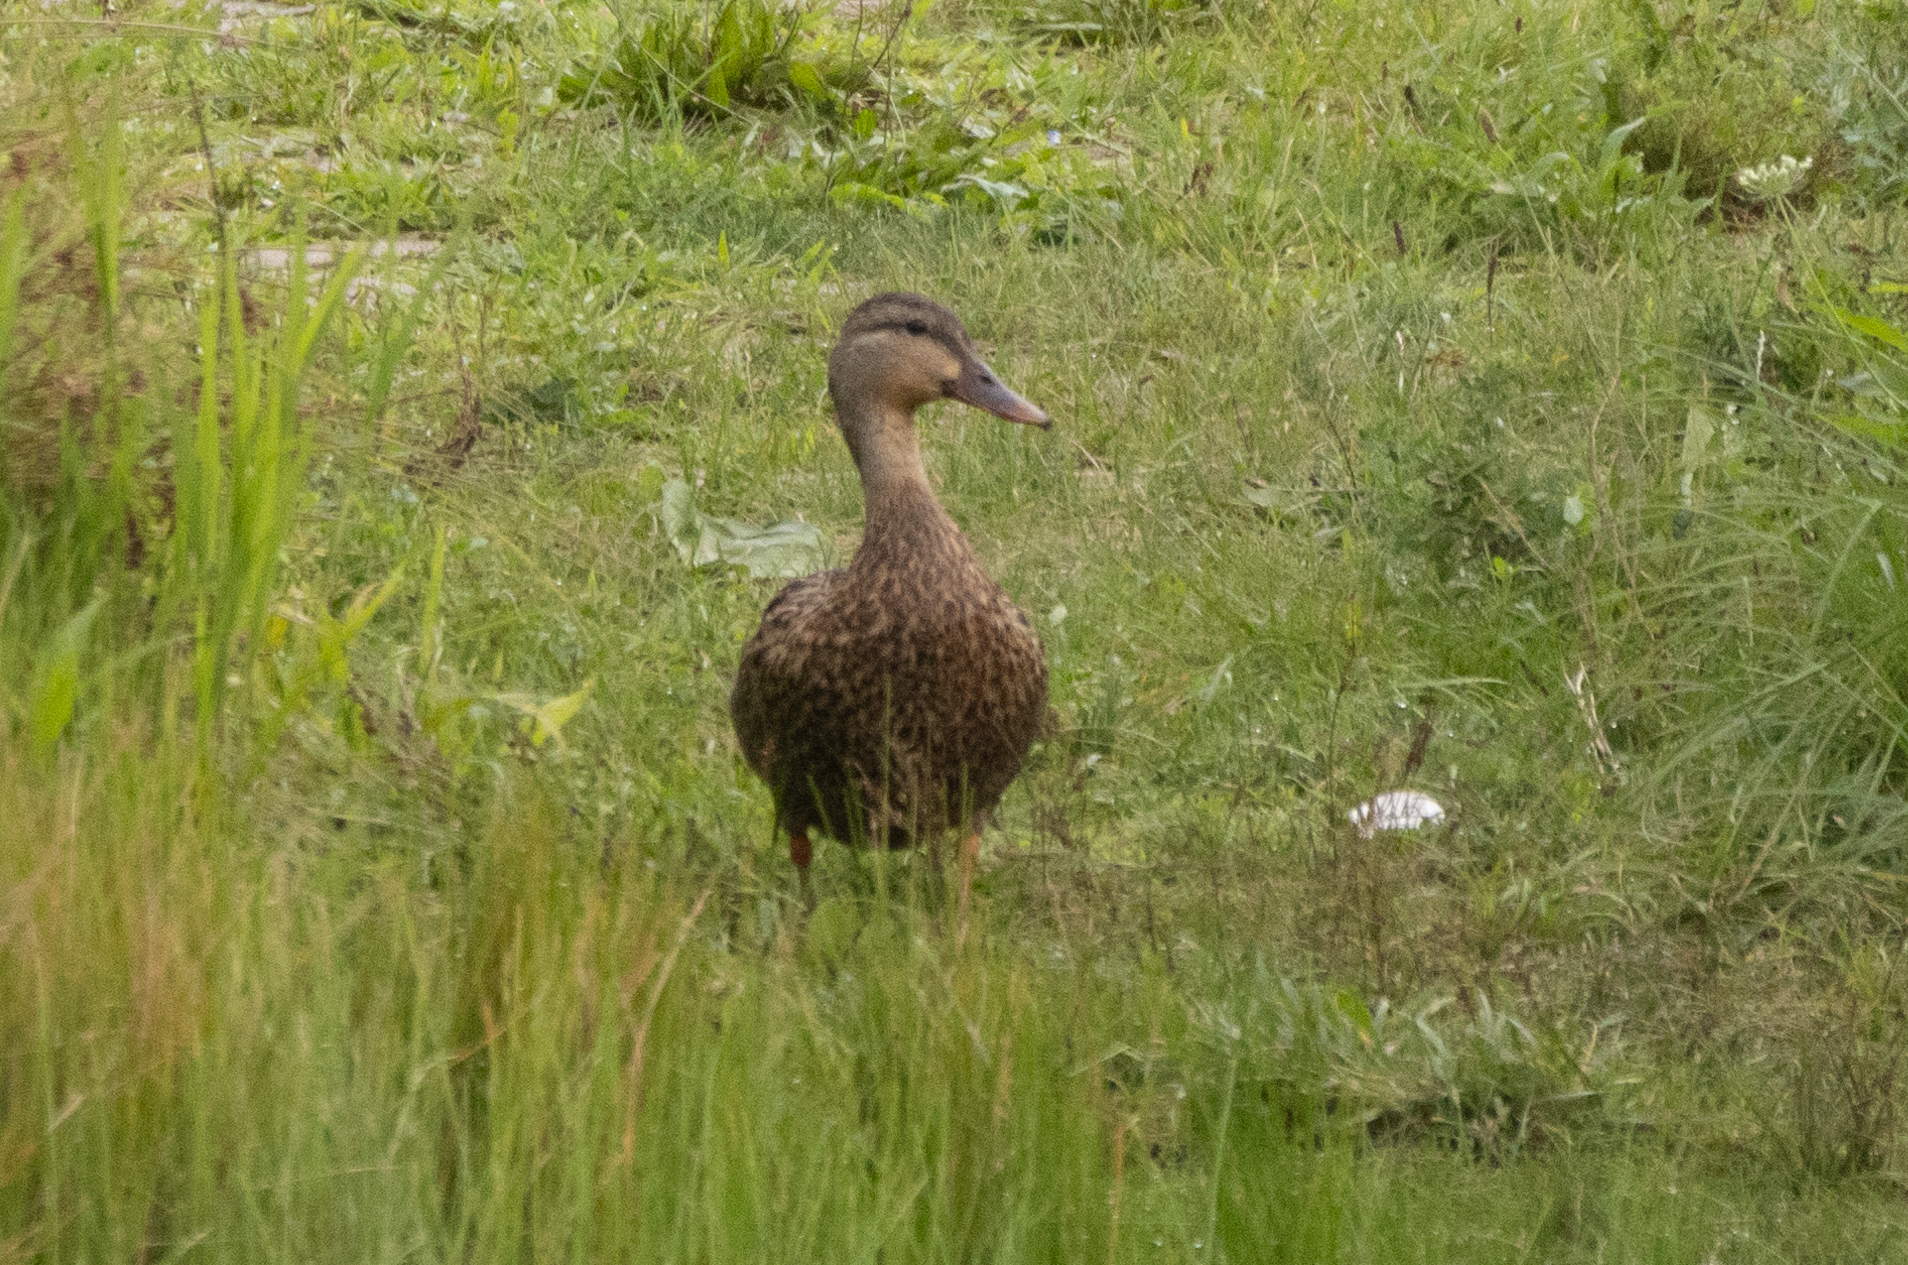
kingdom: Animalia
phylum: Chordata
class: Aves
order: Anseriformes
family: Anatidae
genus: Anas
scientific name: Anas platyrhynchos
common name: Mallard
